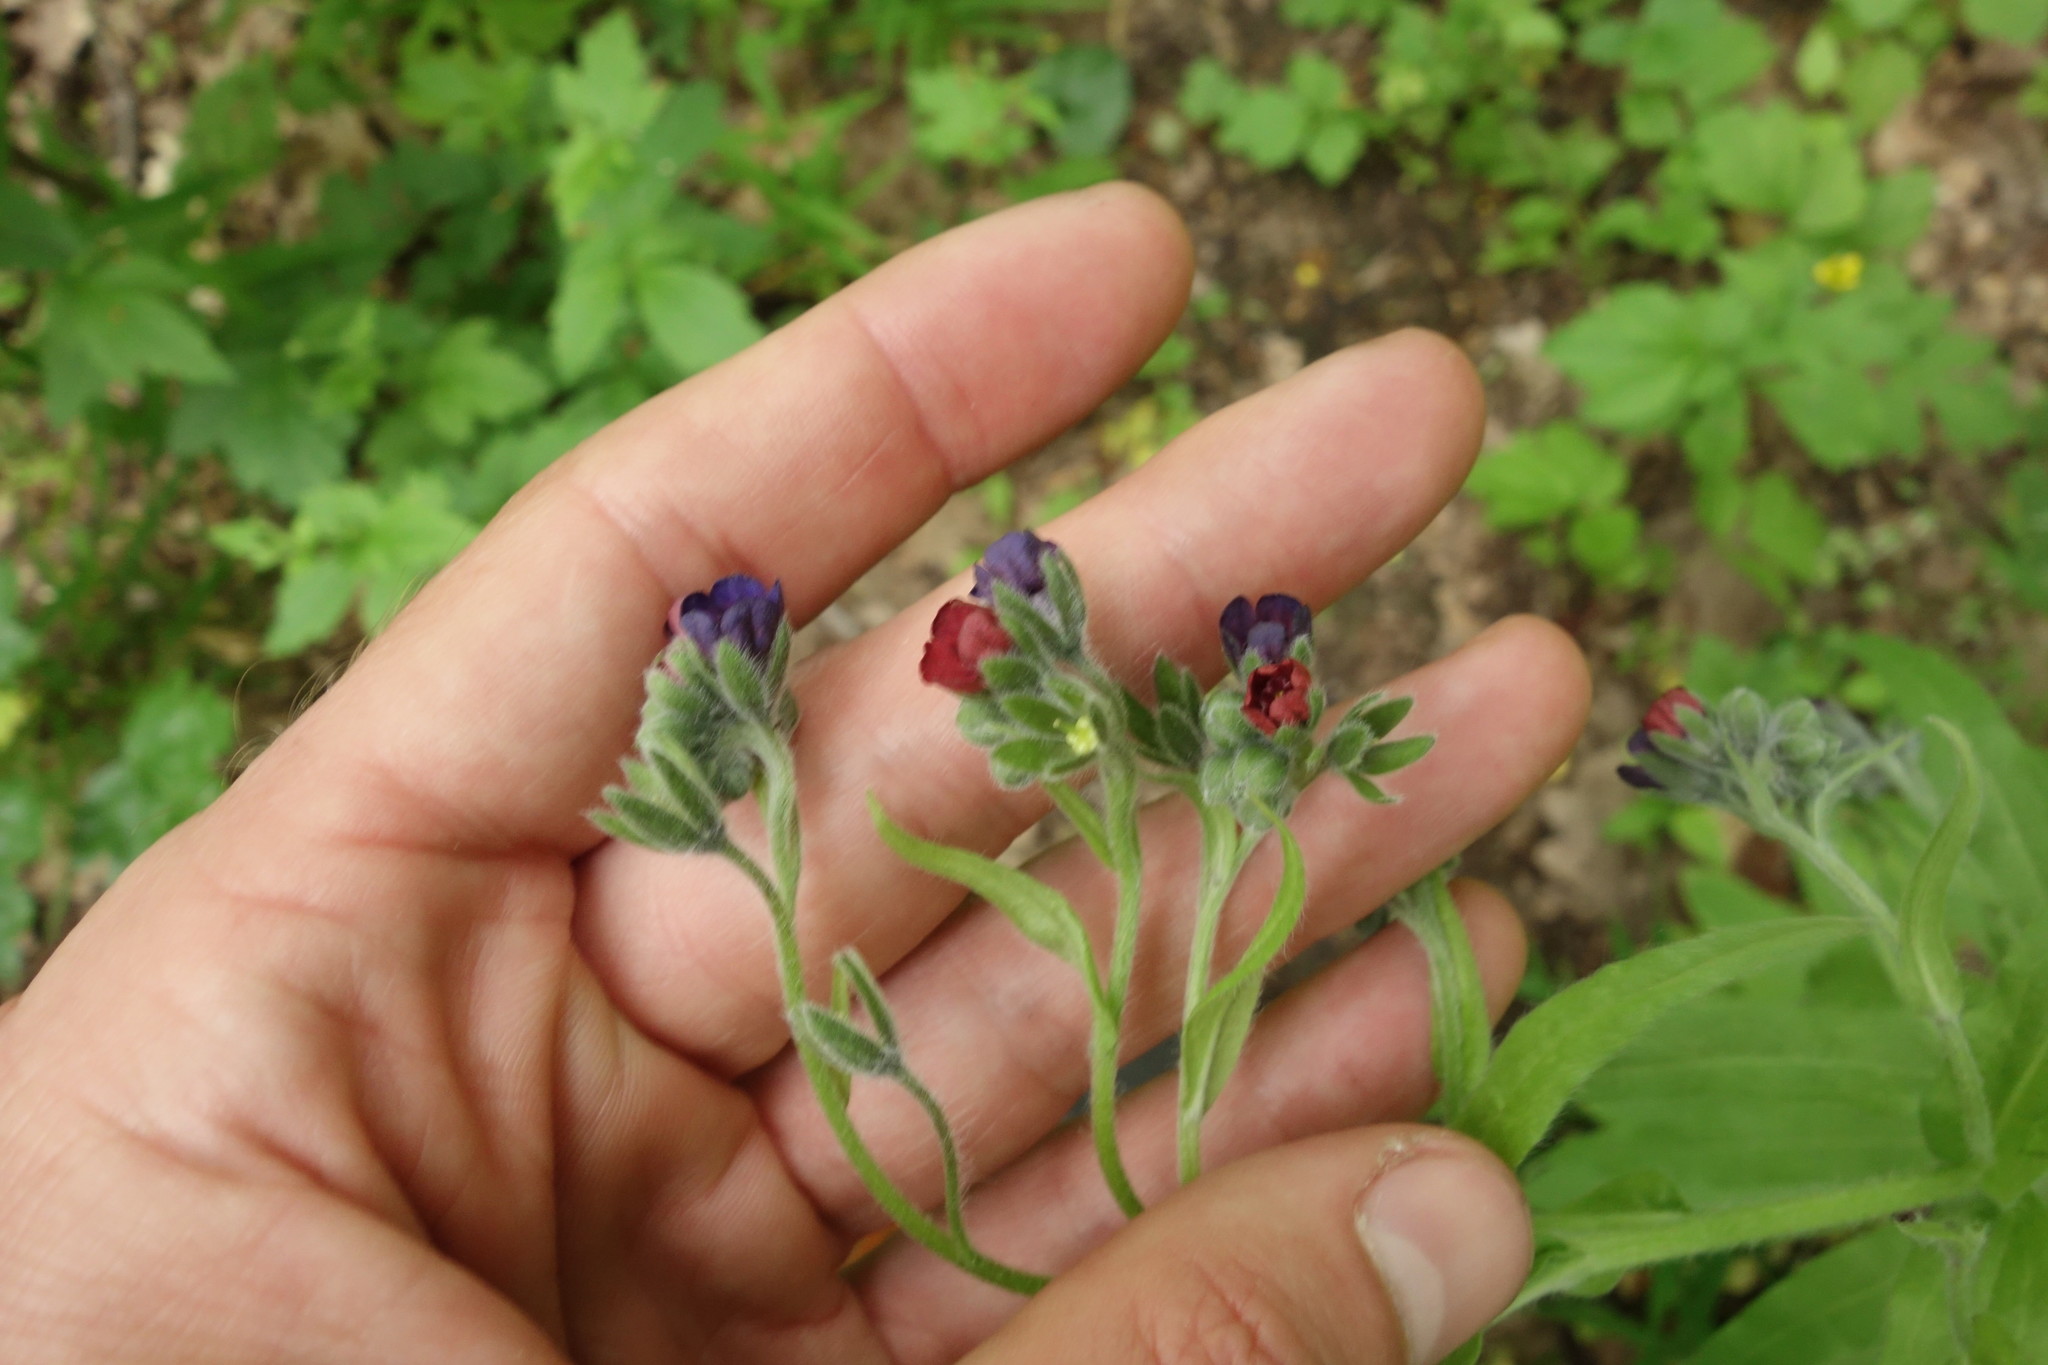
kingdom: Plantae
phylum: Tracheophyta
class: Magnoliopsida
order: Boraginales
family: Boraginaceae
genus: Cynoglossum
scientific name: Cynoglossum officinale
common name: Hound's-tongue
